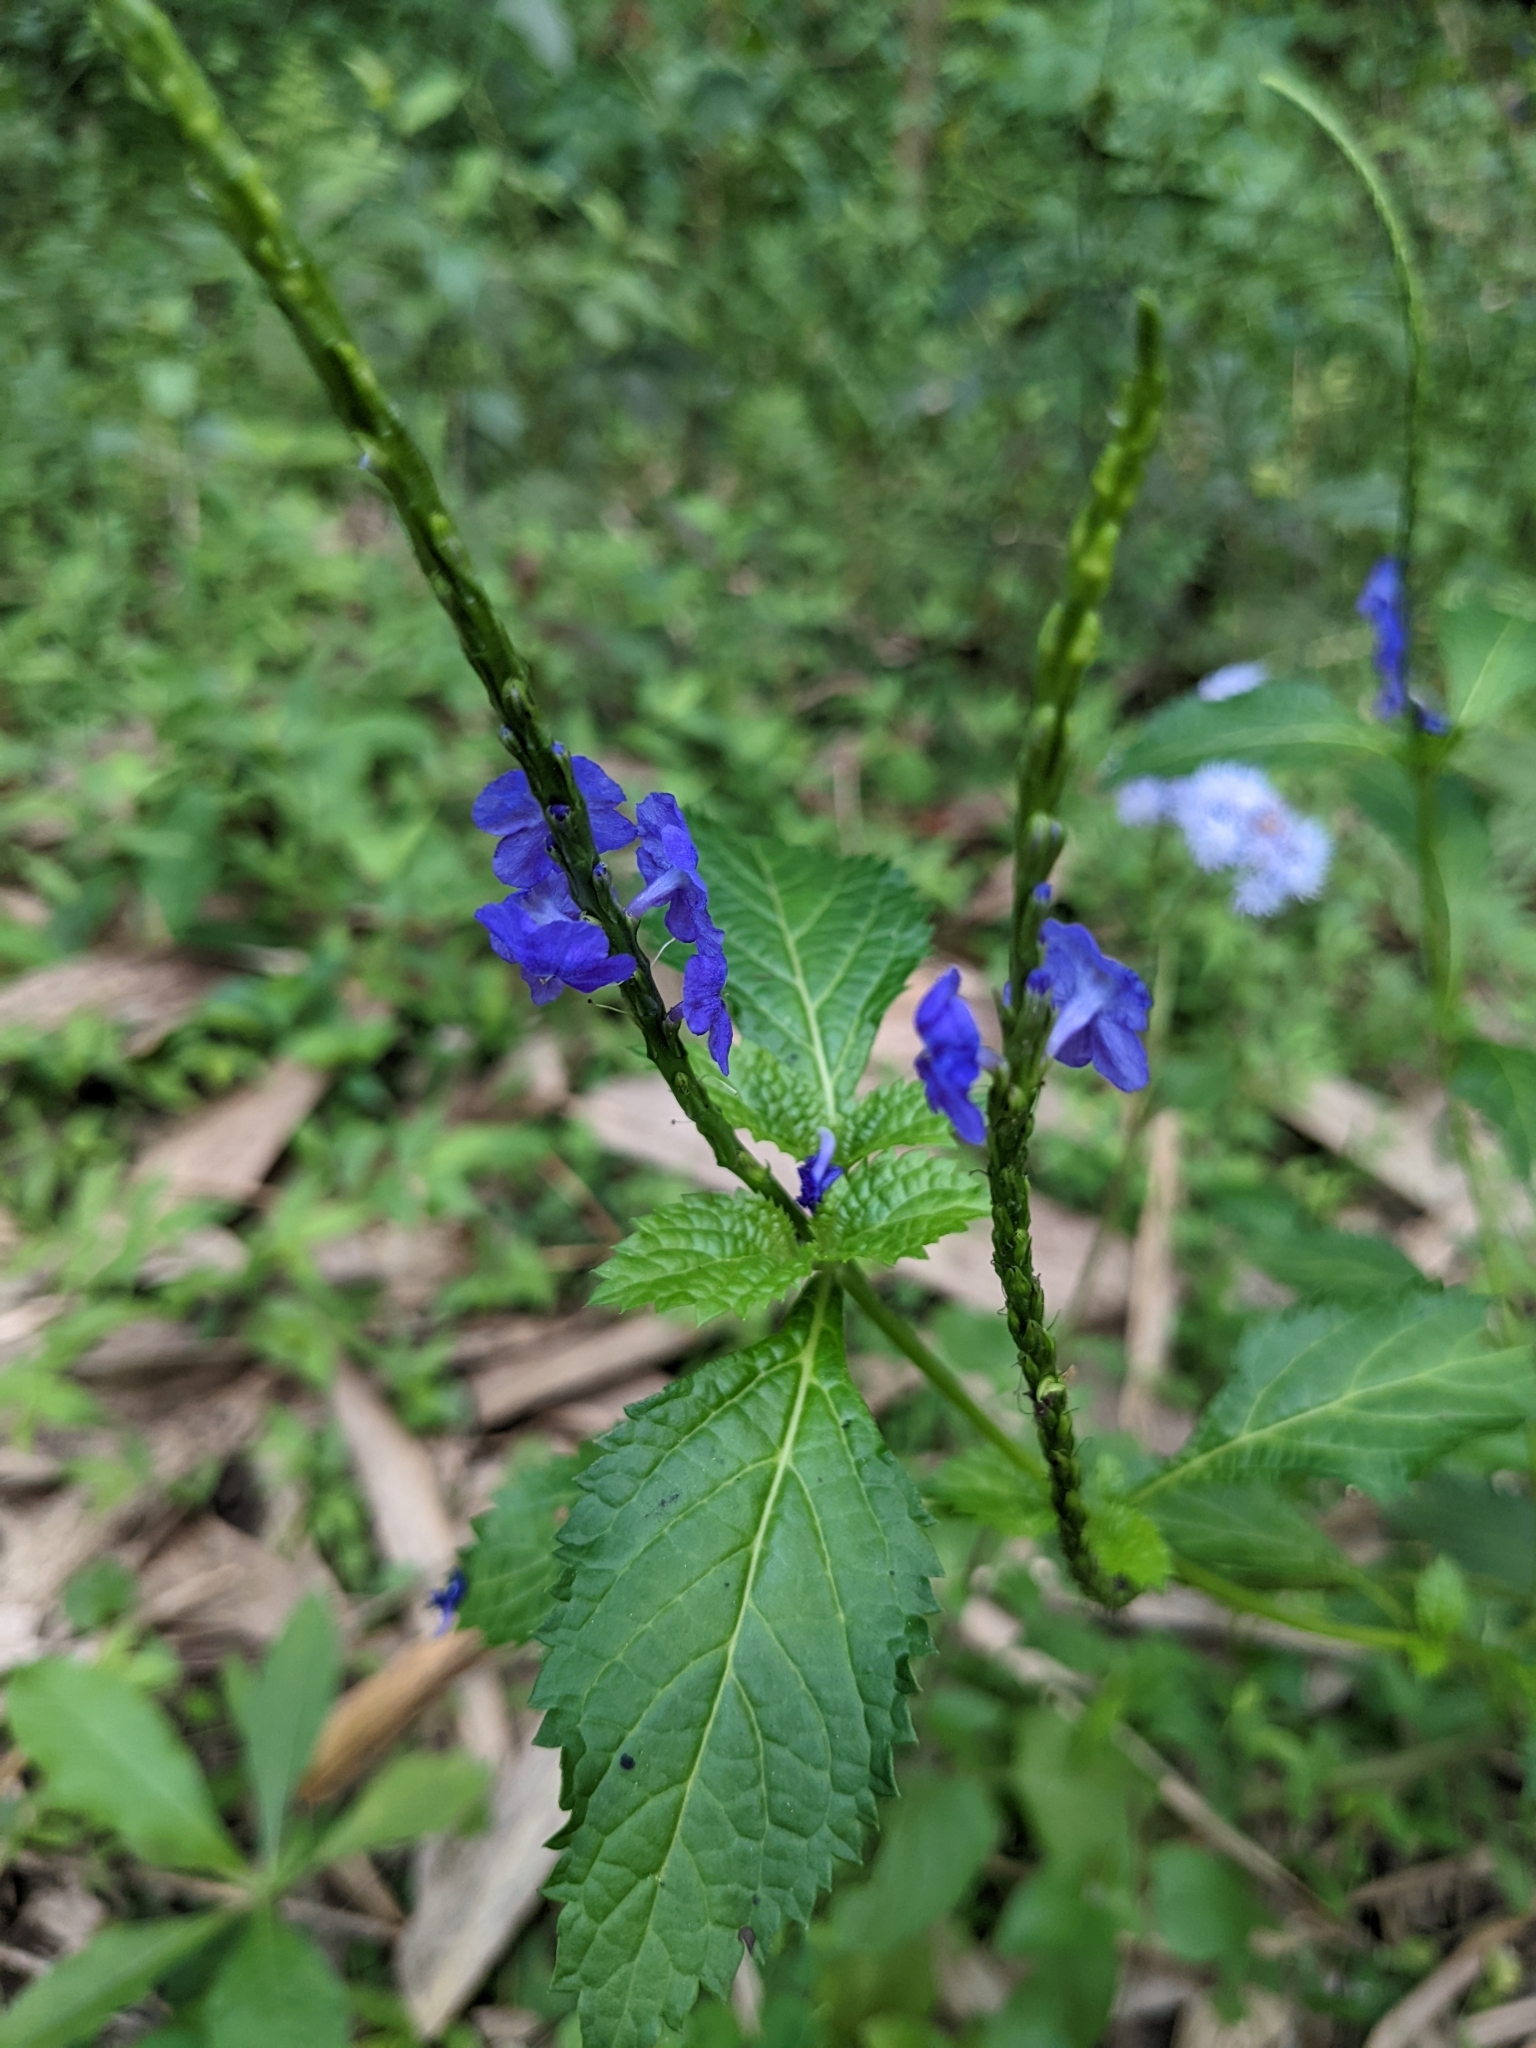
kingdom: Plantae
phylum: Tracheophyta
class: Magnoliopsida
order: Lamiales
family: Verbenaceae
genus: Stachytarpheta
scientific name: Stachytarpheta urticifolia
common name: Nettleleaf velvetberry
